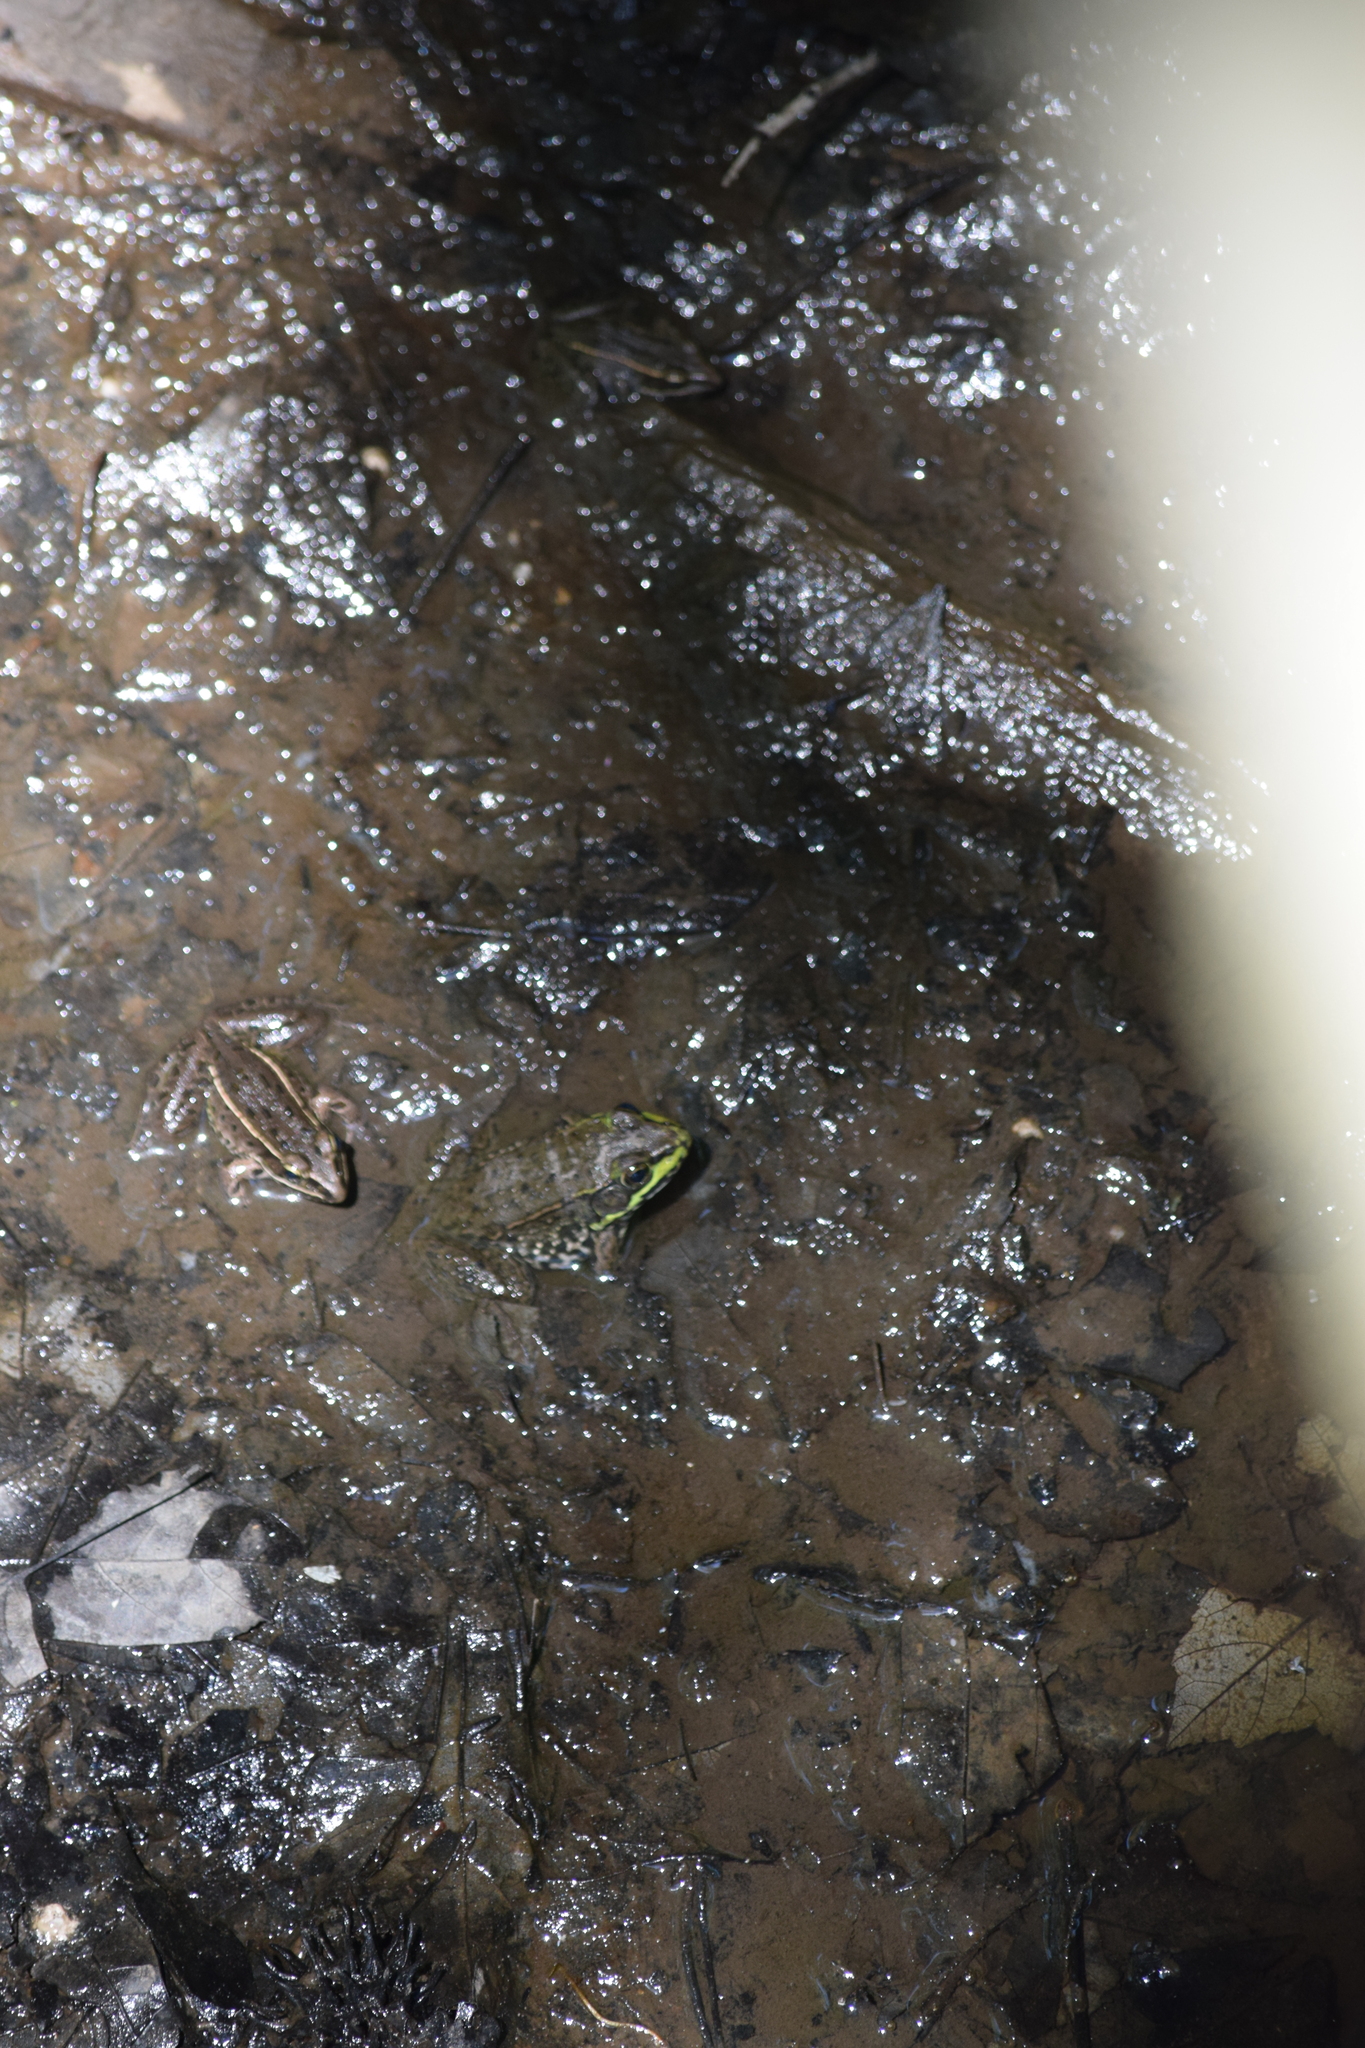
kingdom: Animalia
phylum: Chordata
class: Amphibia
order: Anura
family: Ranidae
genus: Lithobates
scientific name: Lithobates clamitans
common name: Green frog
